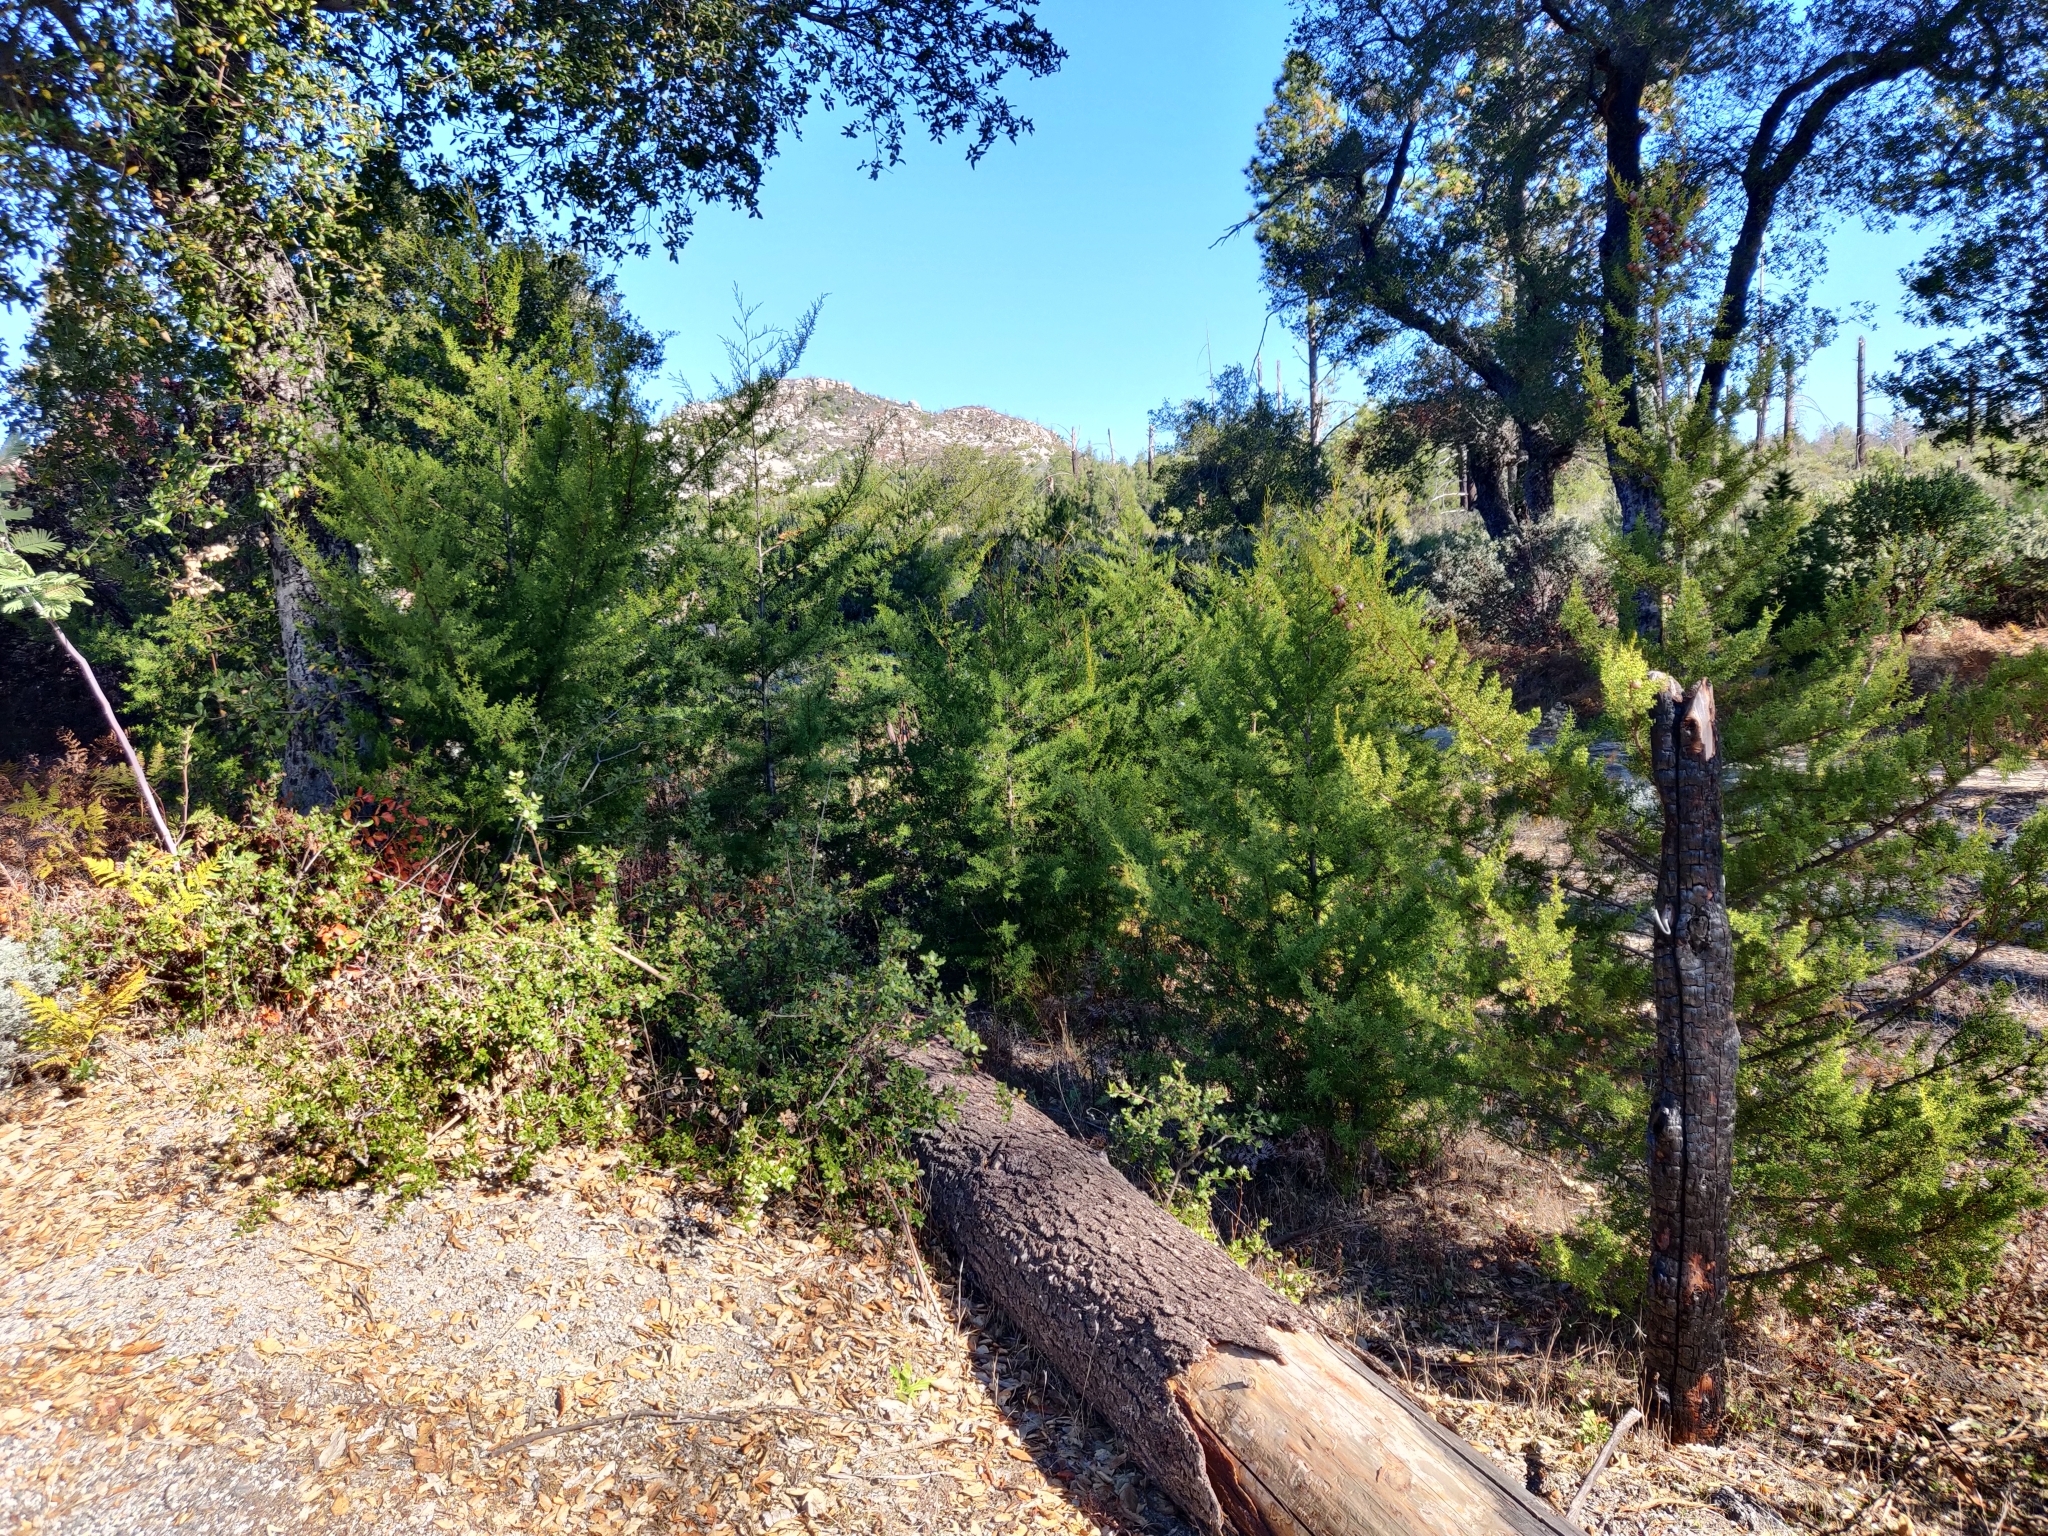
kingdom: Plantae
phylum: Tracheophyta
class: Pinopsida
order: Pinales
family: Cupressaceae
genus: Cupressus
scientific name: Cupressus goveniana
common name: Gowen cypress
